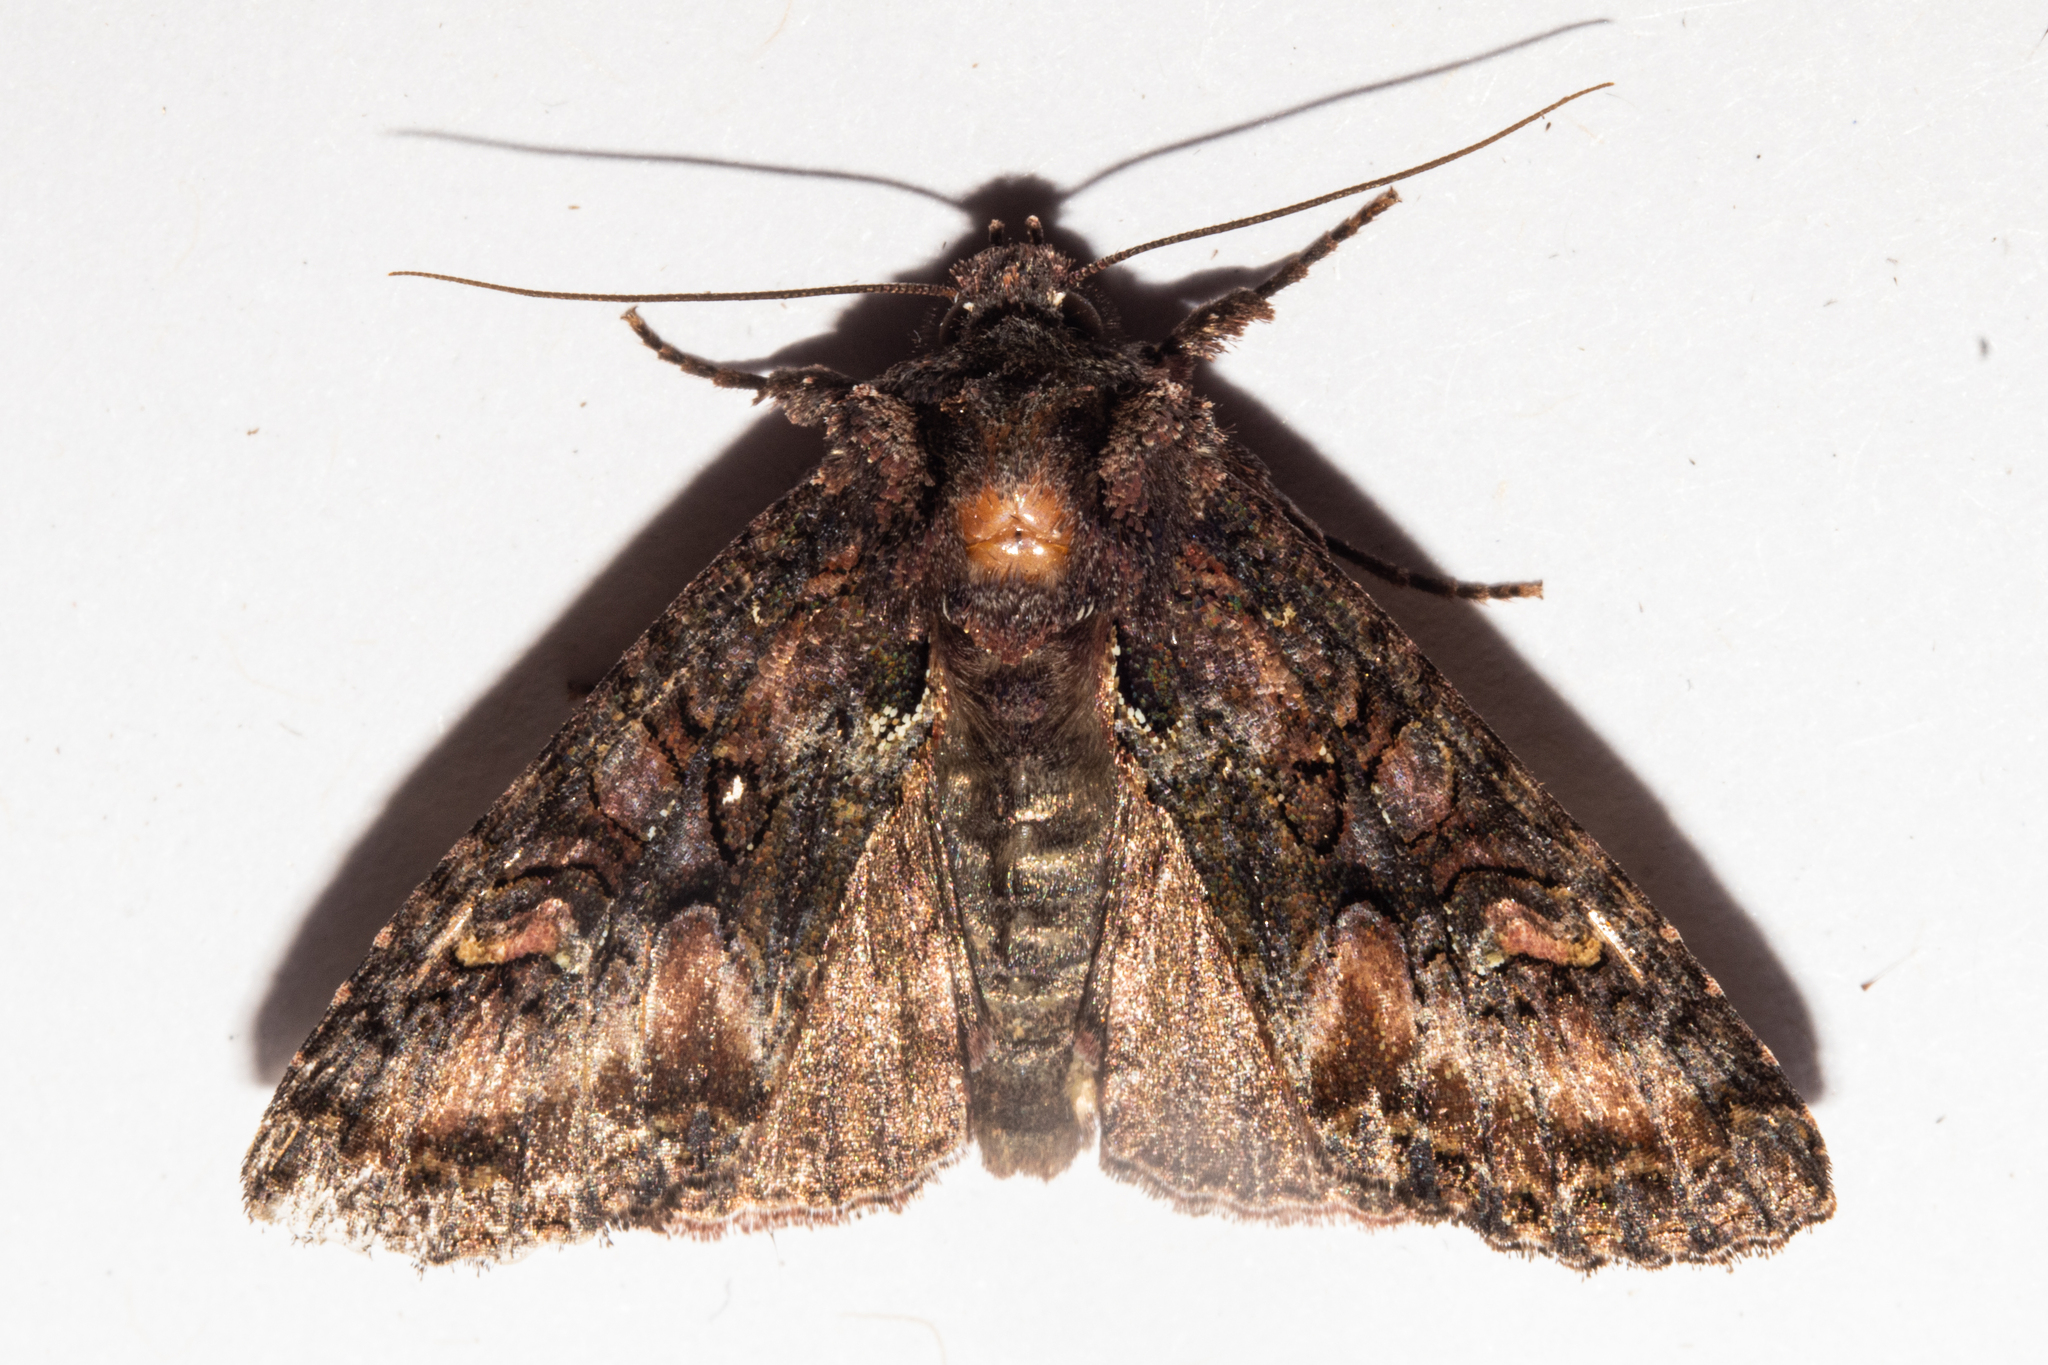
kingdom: Animalia
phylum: Arthropoda
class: Insecta
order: Lepidoptera
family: Noctuidae
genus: Meterana
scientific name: Meterana dotata
